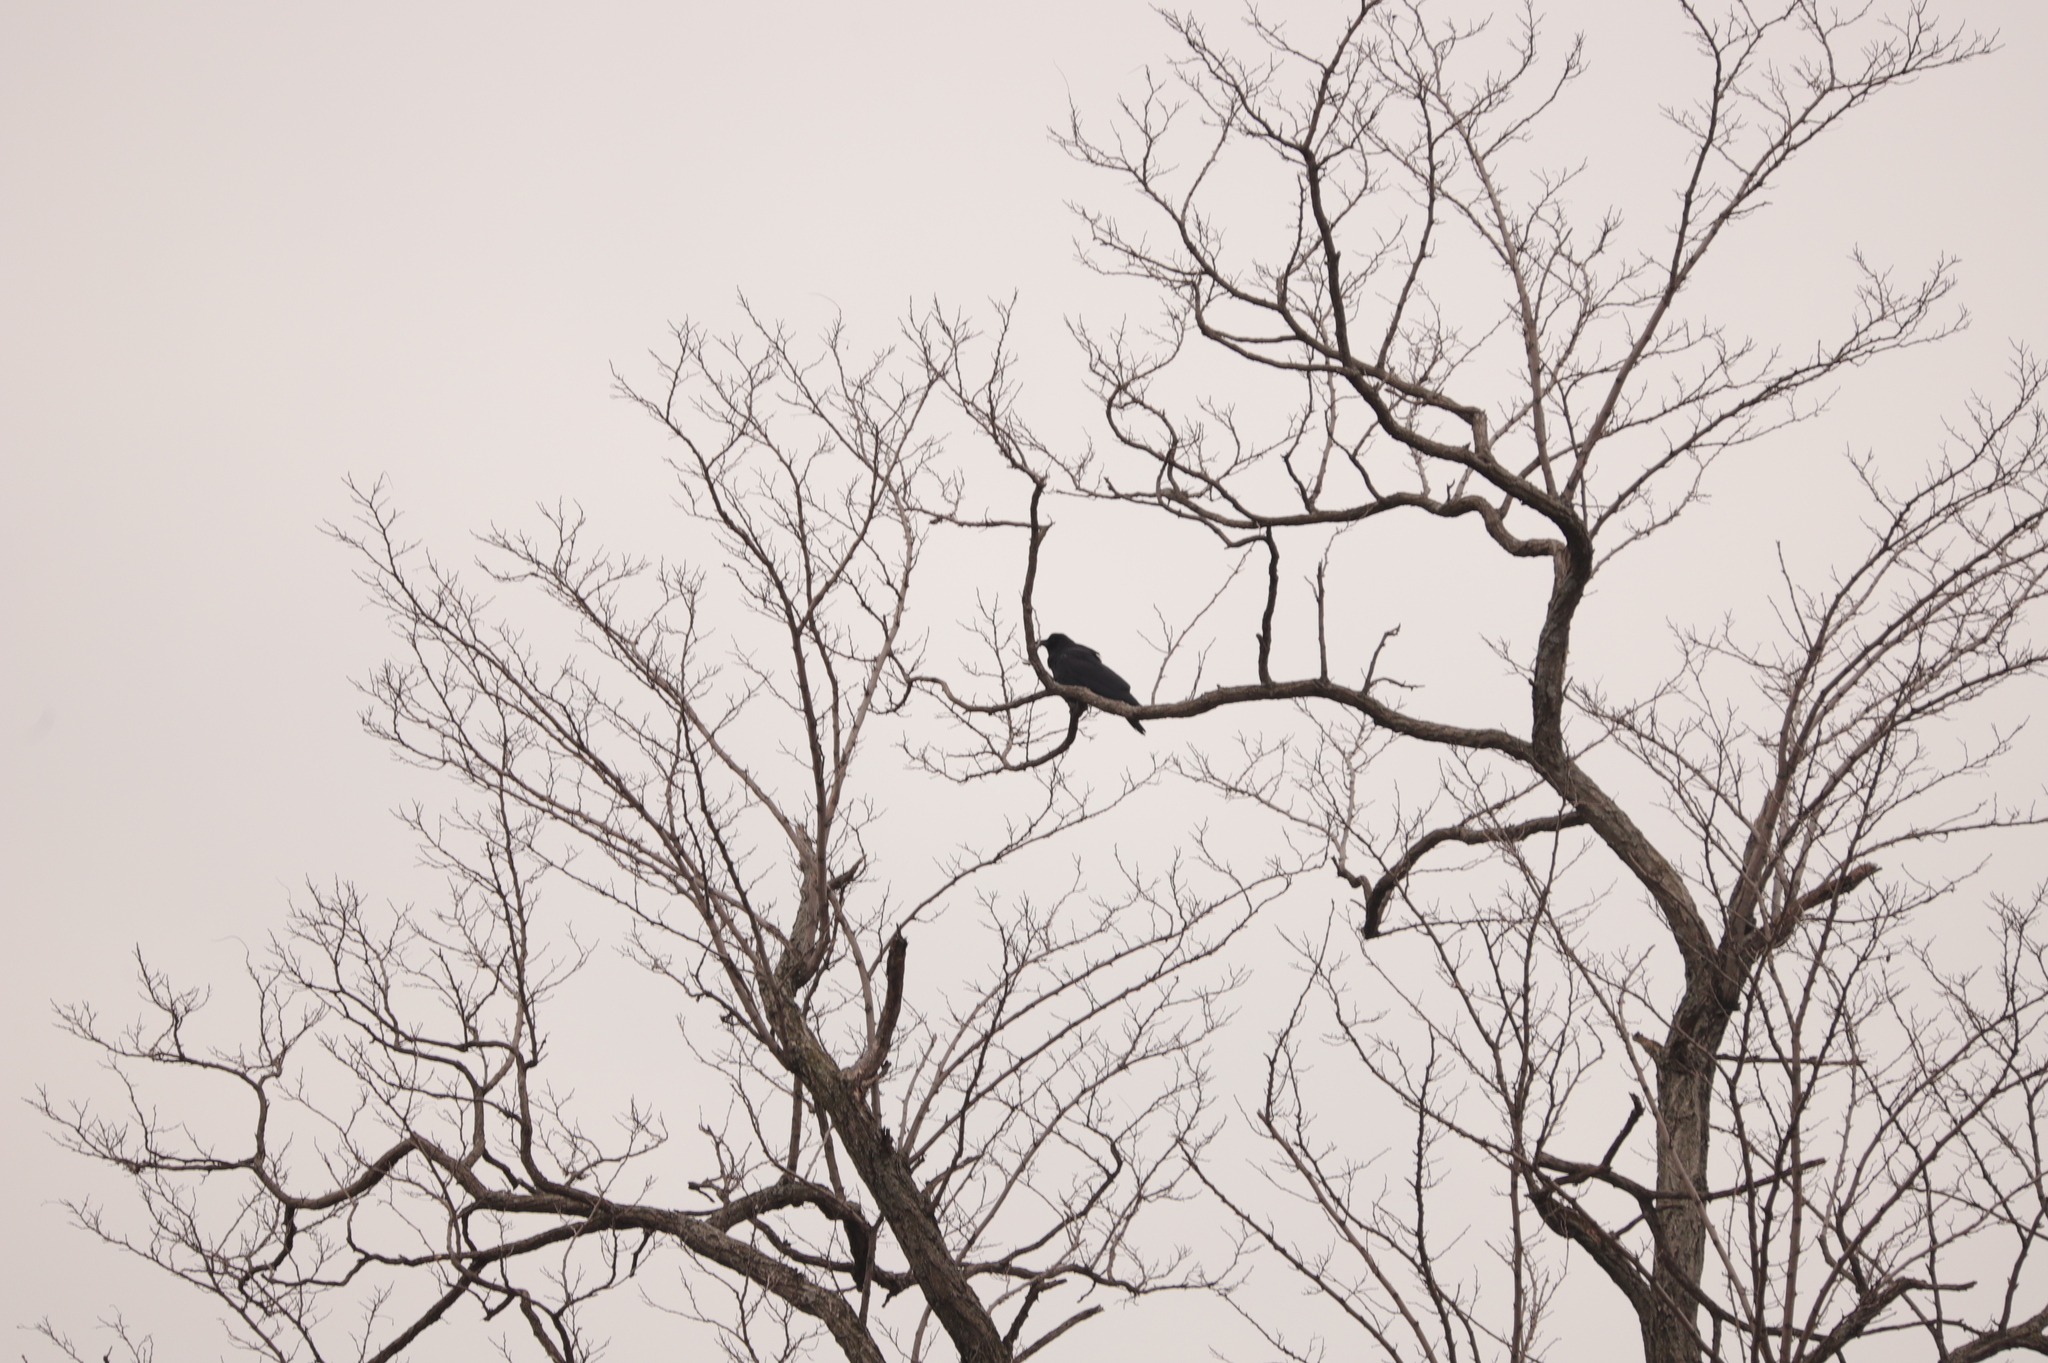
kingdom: Animalia
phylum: Chordata
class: Aves
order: Passeriformes
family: Corvidae
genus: Corvus
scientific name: Corvus
